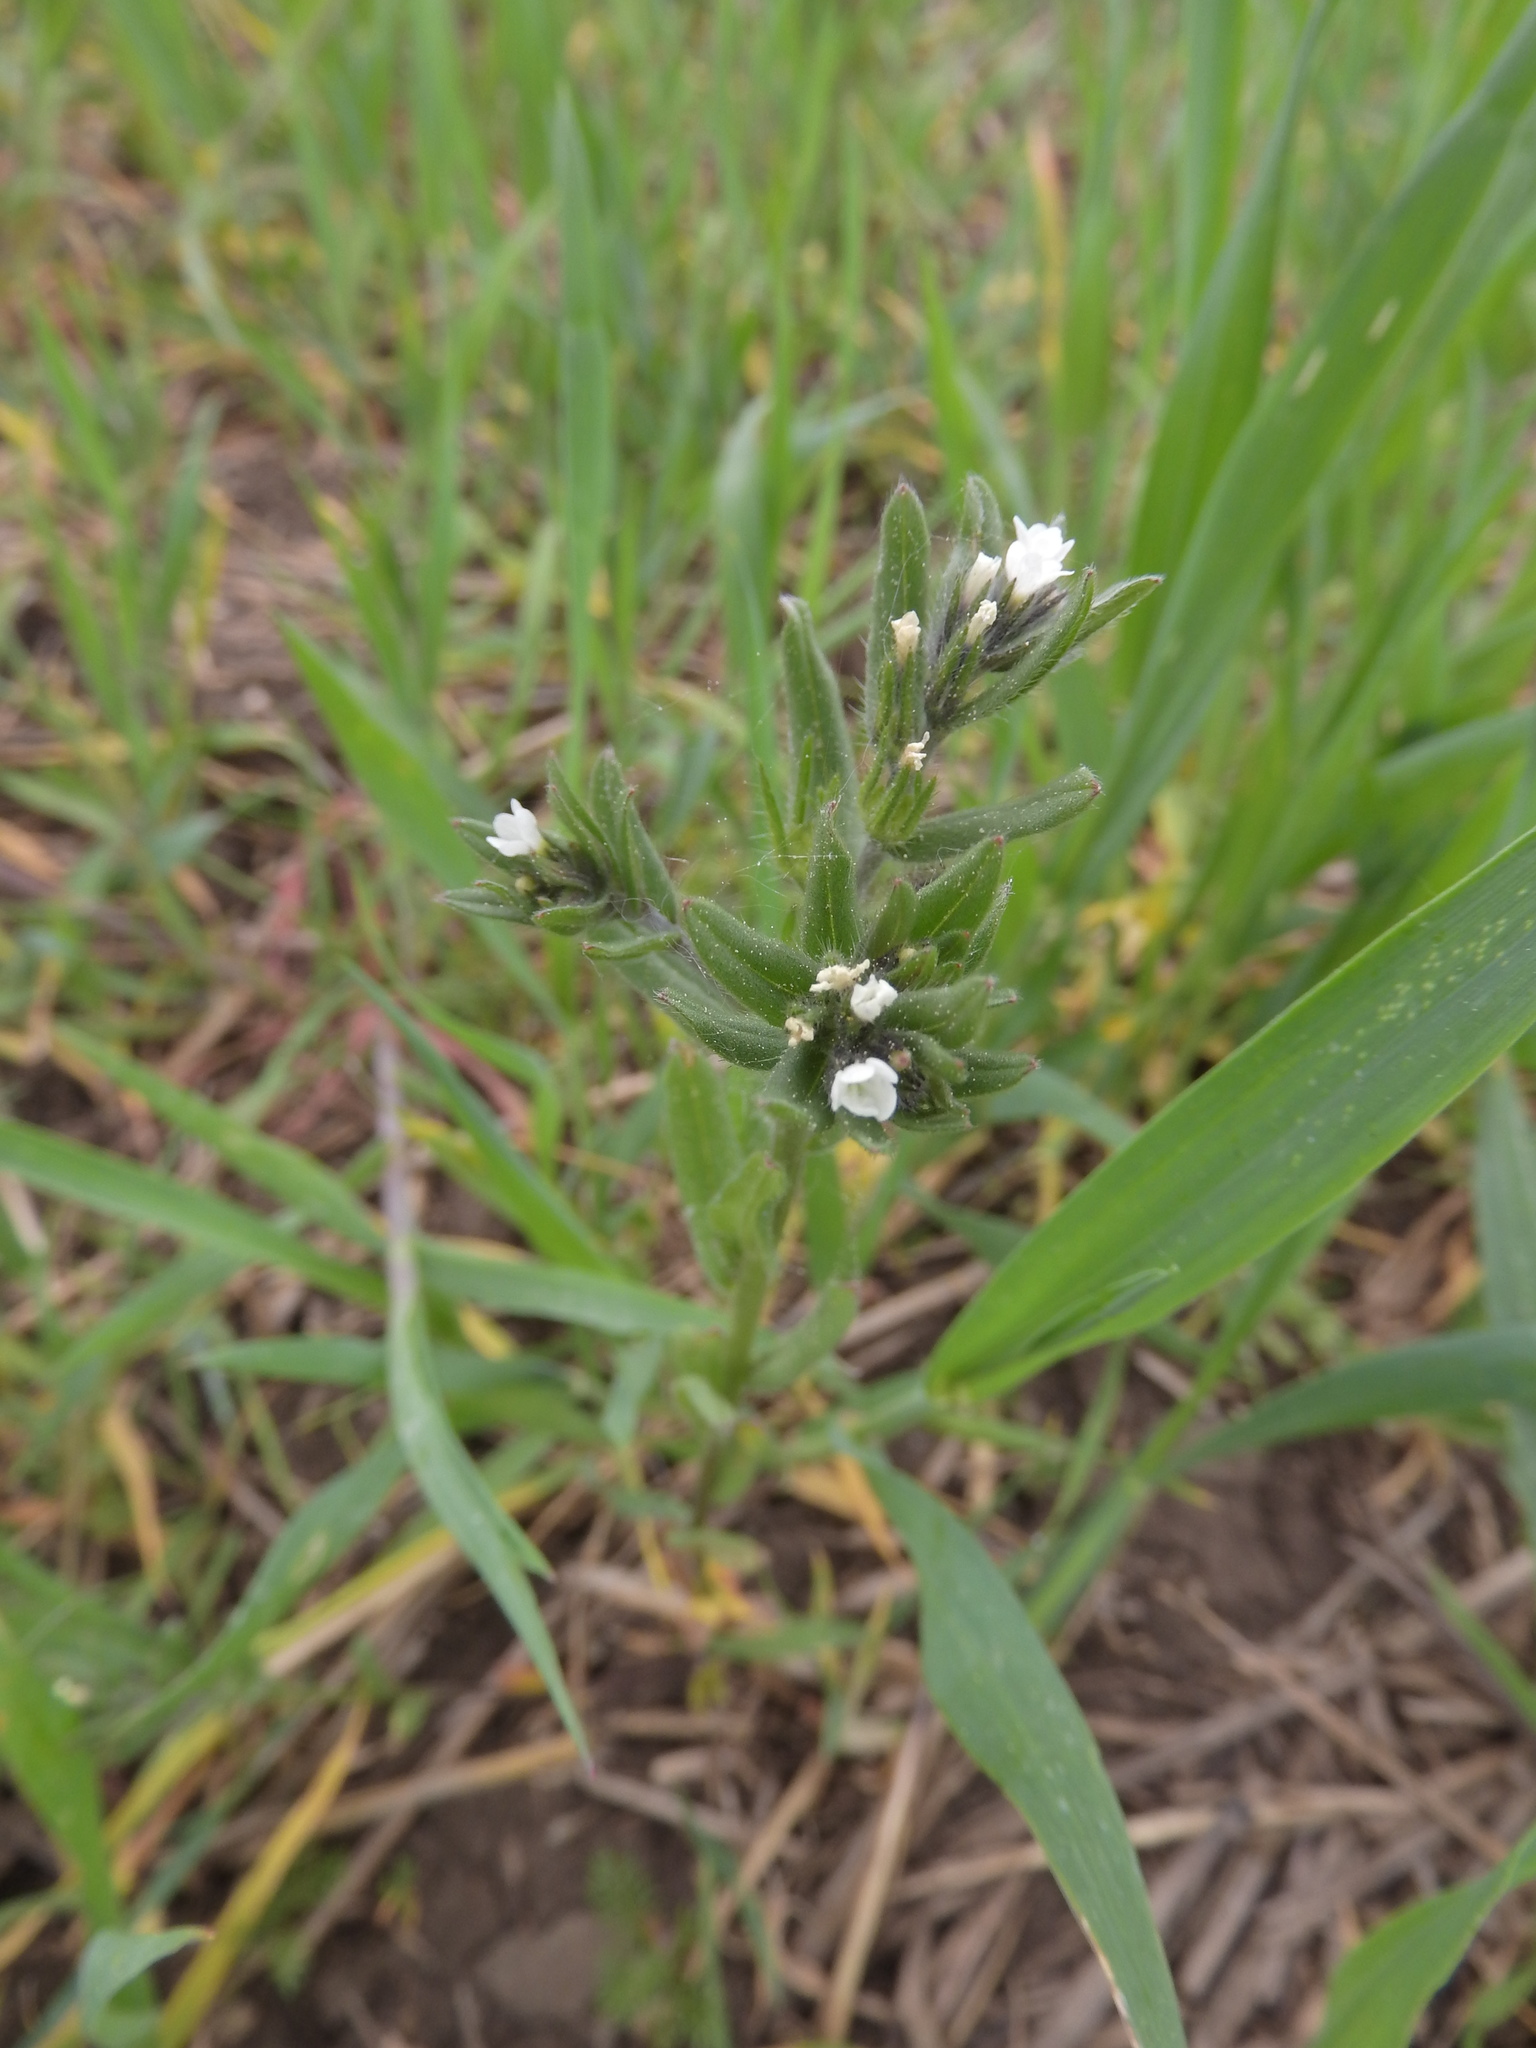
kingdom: Plantae
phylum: Tracheophyta
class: Magnoliopsida
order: Boraginales
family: Boraginaceae
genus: Buglossoides
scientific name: Buglossoides arvensis
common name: Corn gromwell
